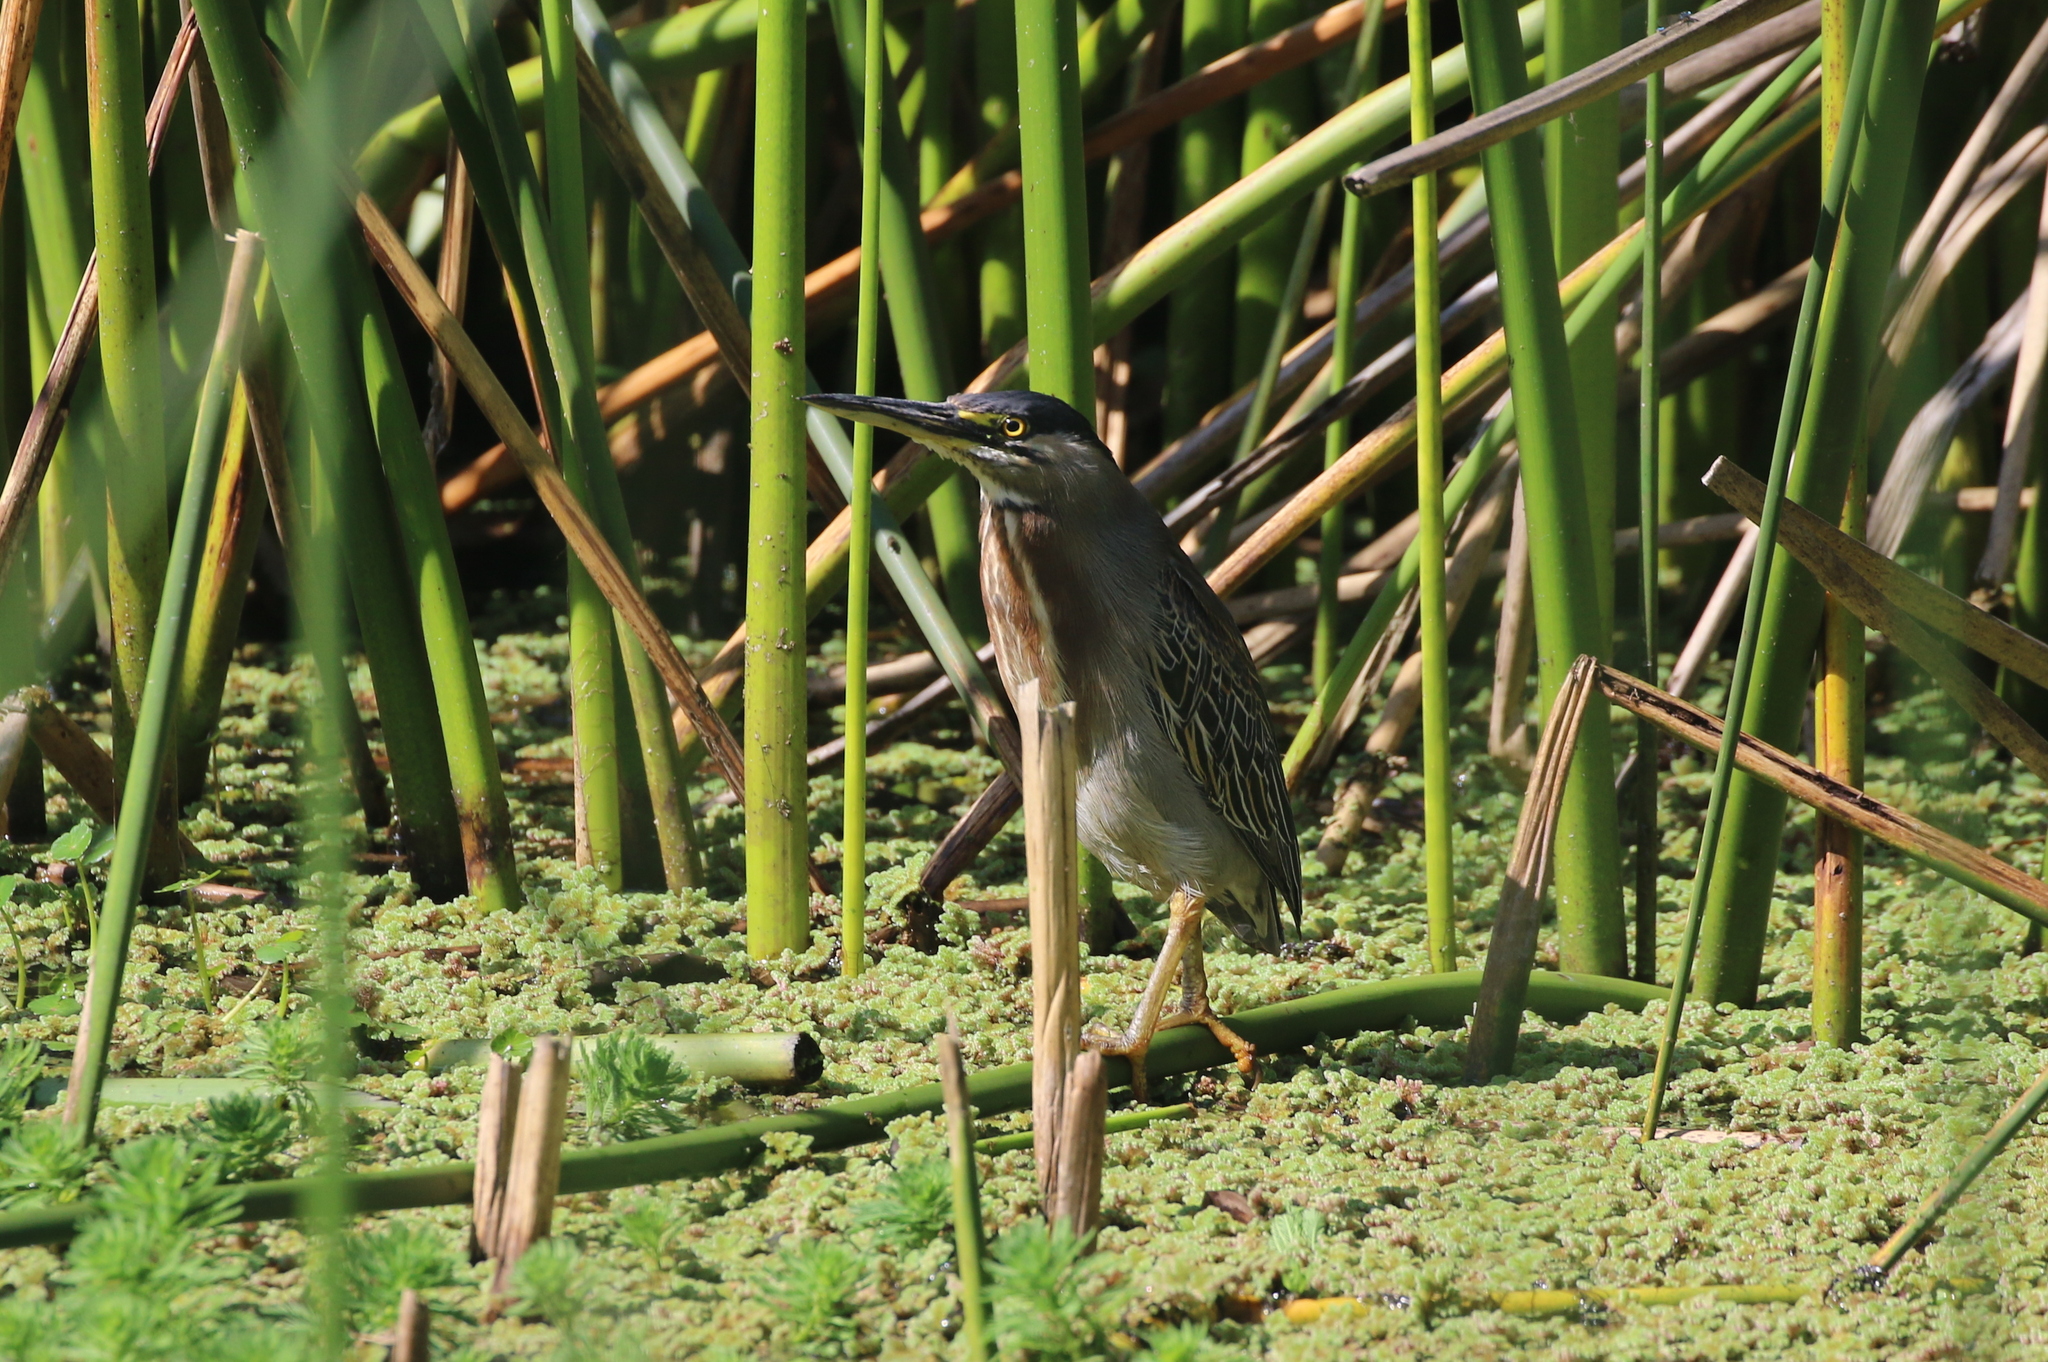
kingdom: Animalia
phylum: Chordata
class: Aves
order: Pelecaniformes
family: Ardeidae
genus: Butorides
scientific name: Butorides striata
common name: Striated heron
